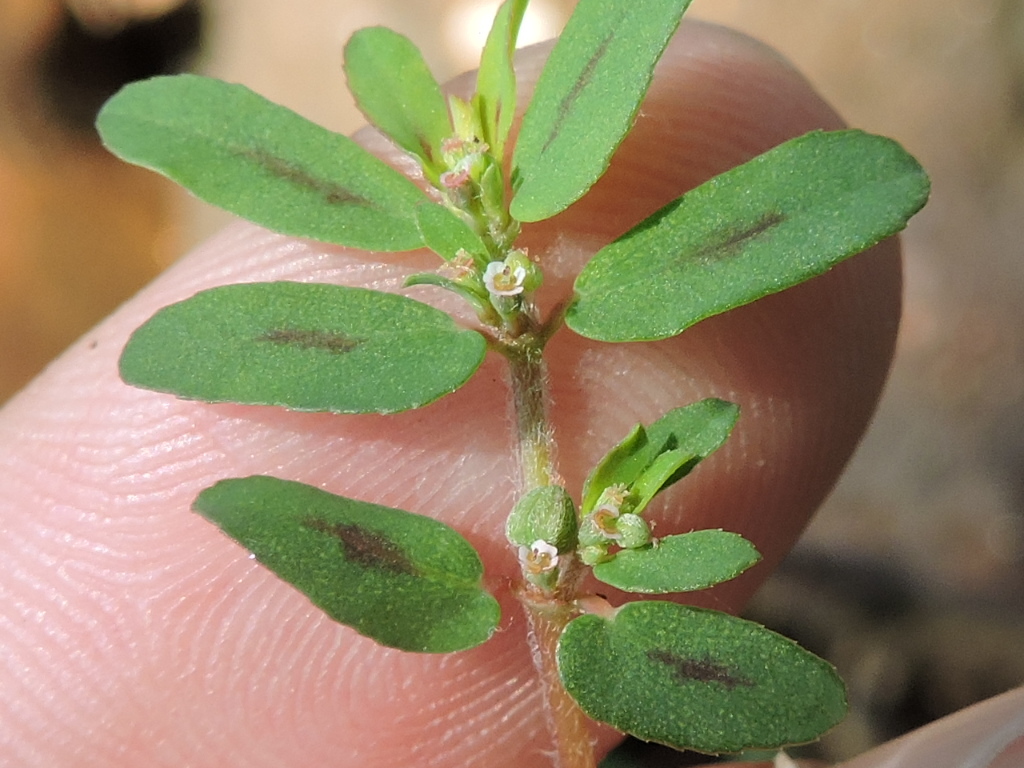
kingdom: Plantae
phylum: Tracheophyta
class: Magnoliopsida
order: Malpighiales
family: Euphorbiaceae
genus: Euphorbia
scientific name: Euphorbia maculata
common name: Spotted spurge
